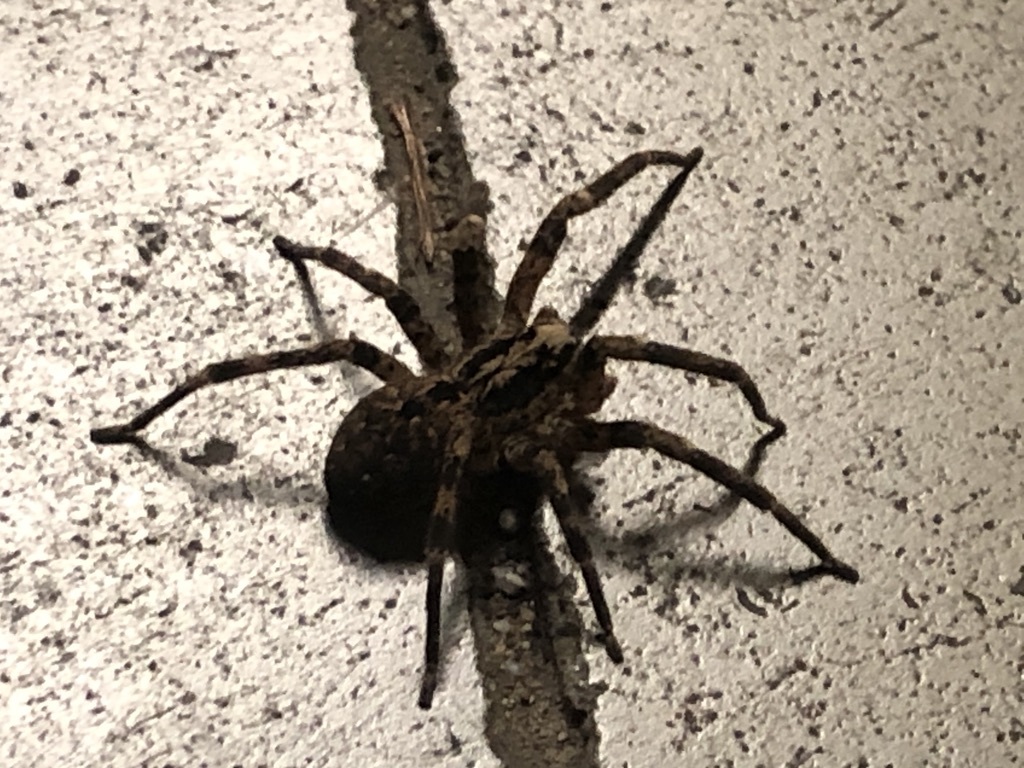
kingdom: Animalia
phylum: Arthropoda
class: Arachnida
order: Araneae
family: Zoropsidae
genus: Zoropsis
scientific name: Zoropsis spinimana
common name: Zoropsid spider
